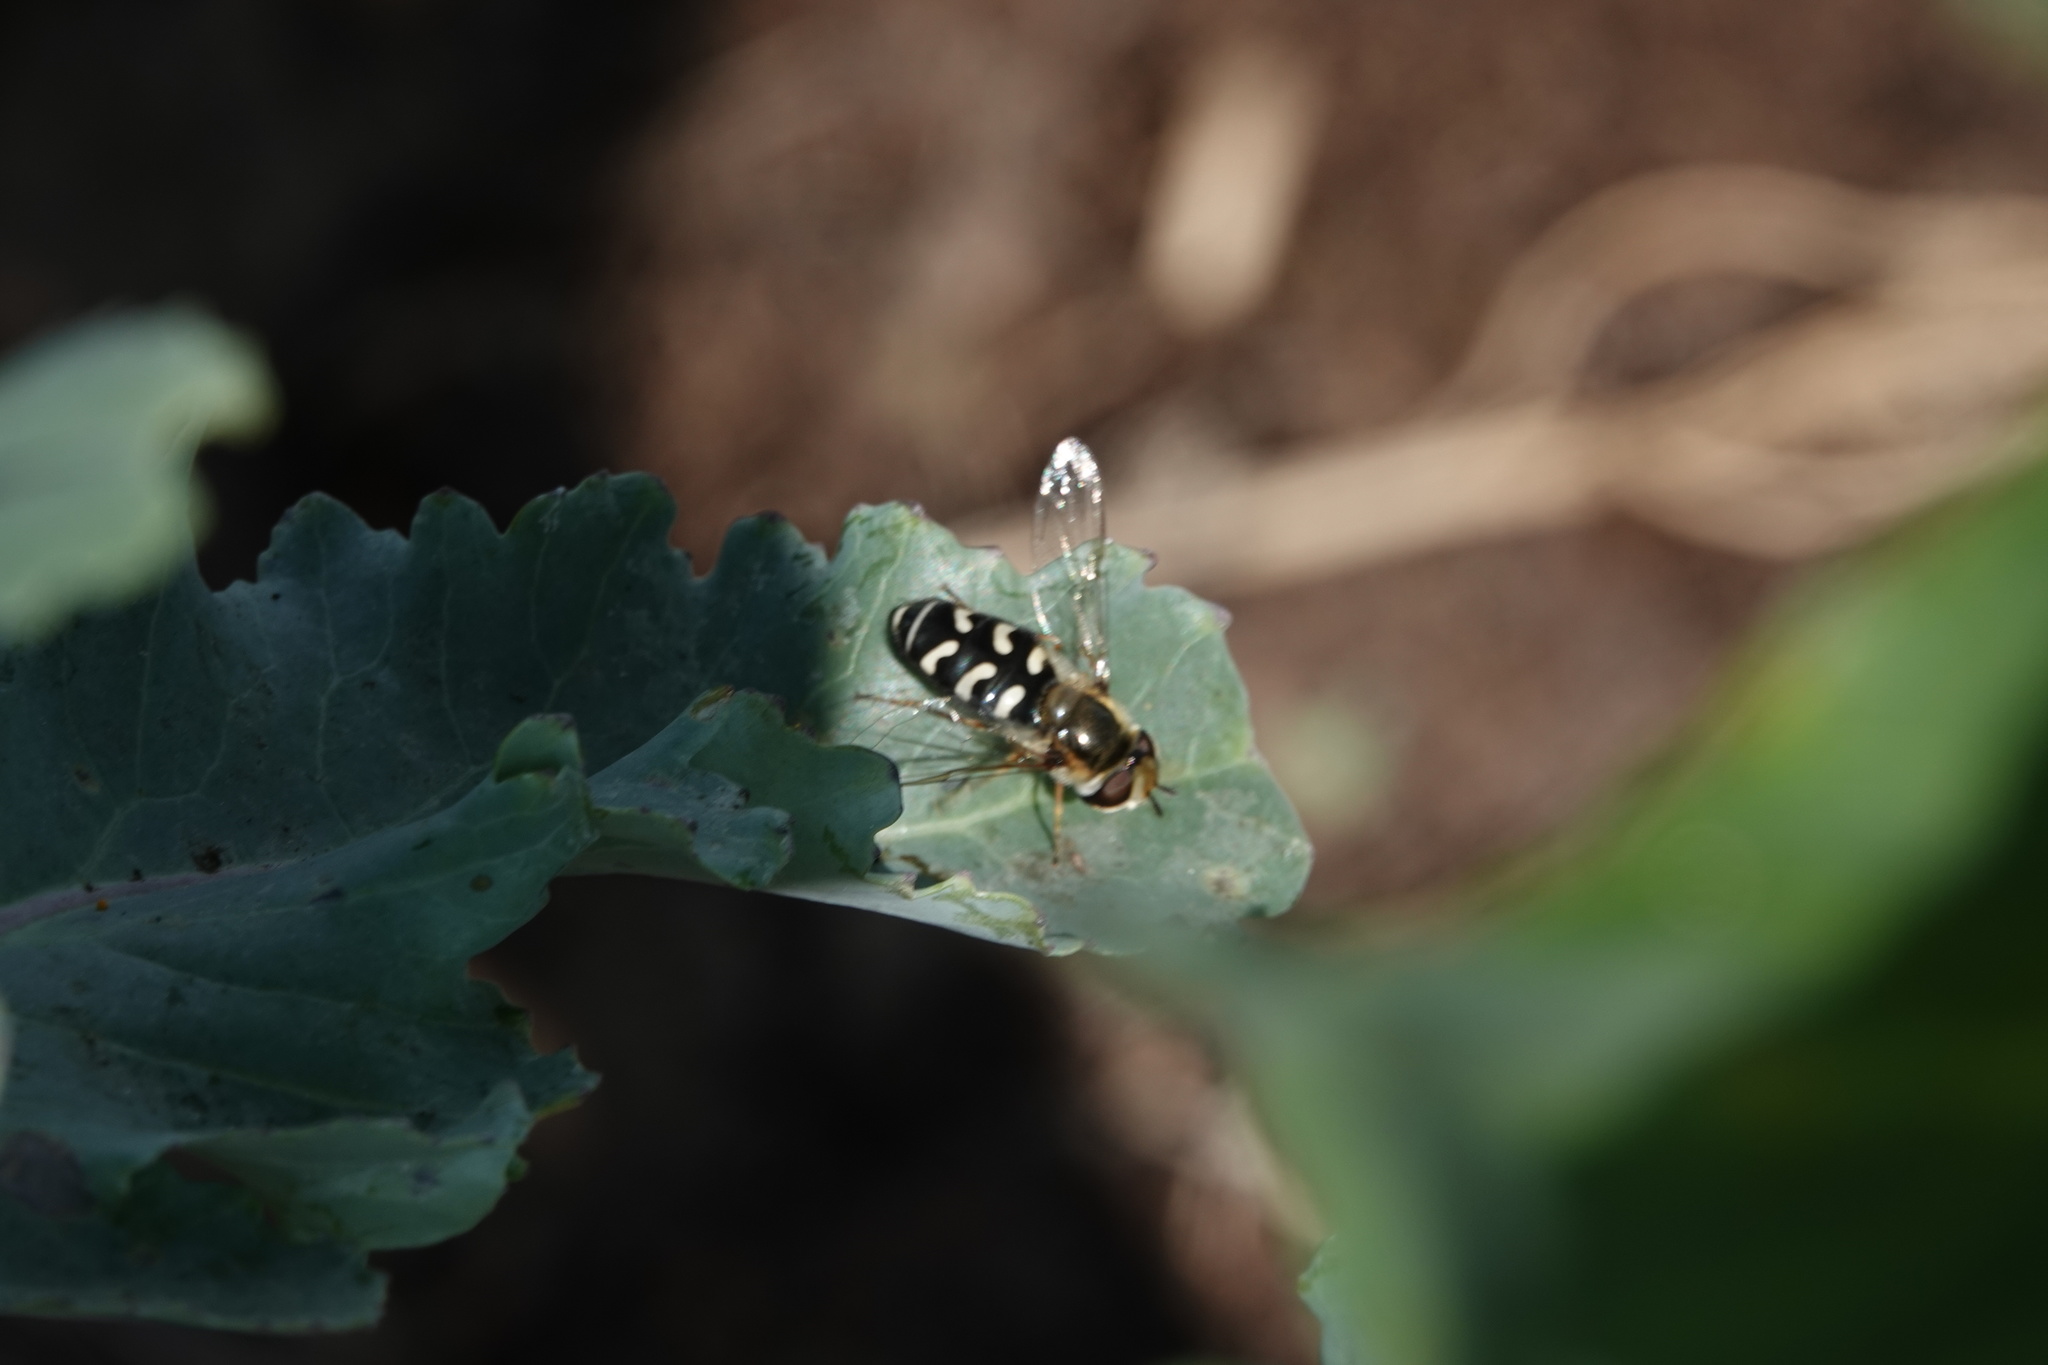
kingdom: Animalia
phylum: Arthropoda
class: Insecta
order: Diptera
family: Syrphidae
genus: Scaeva
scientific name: Scaeva pyrastri
